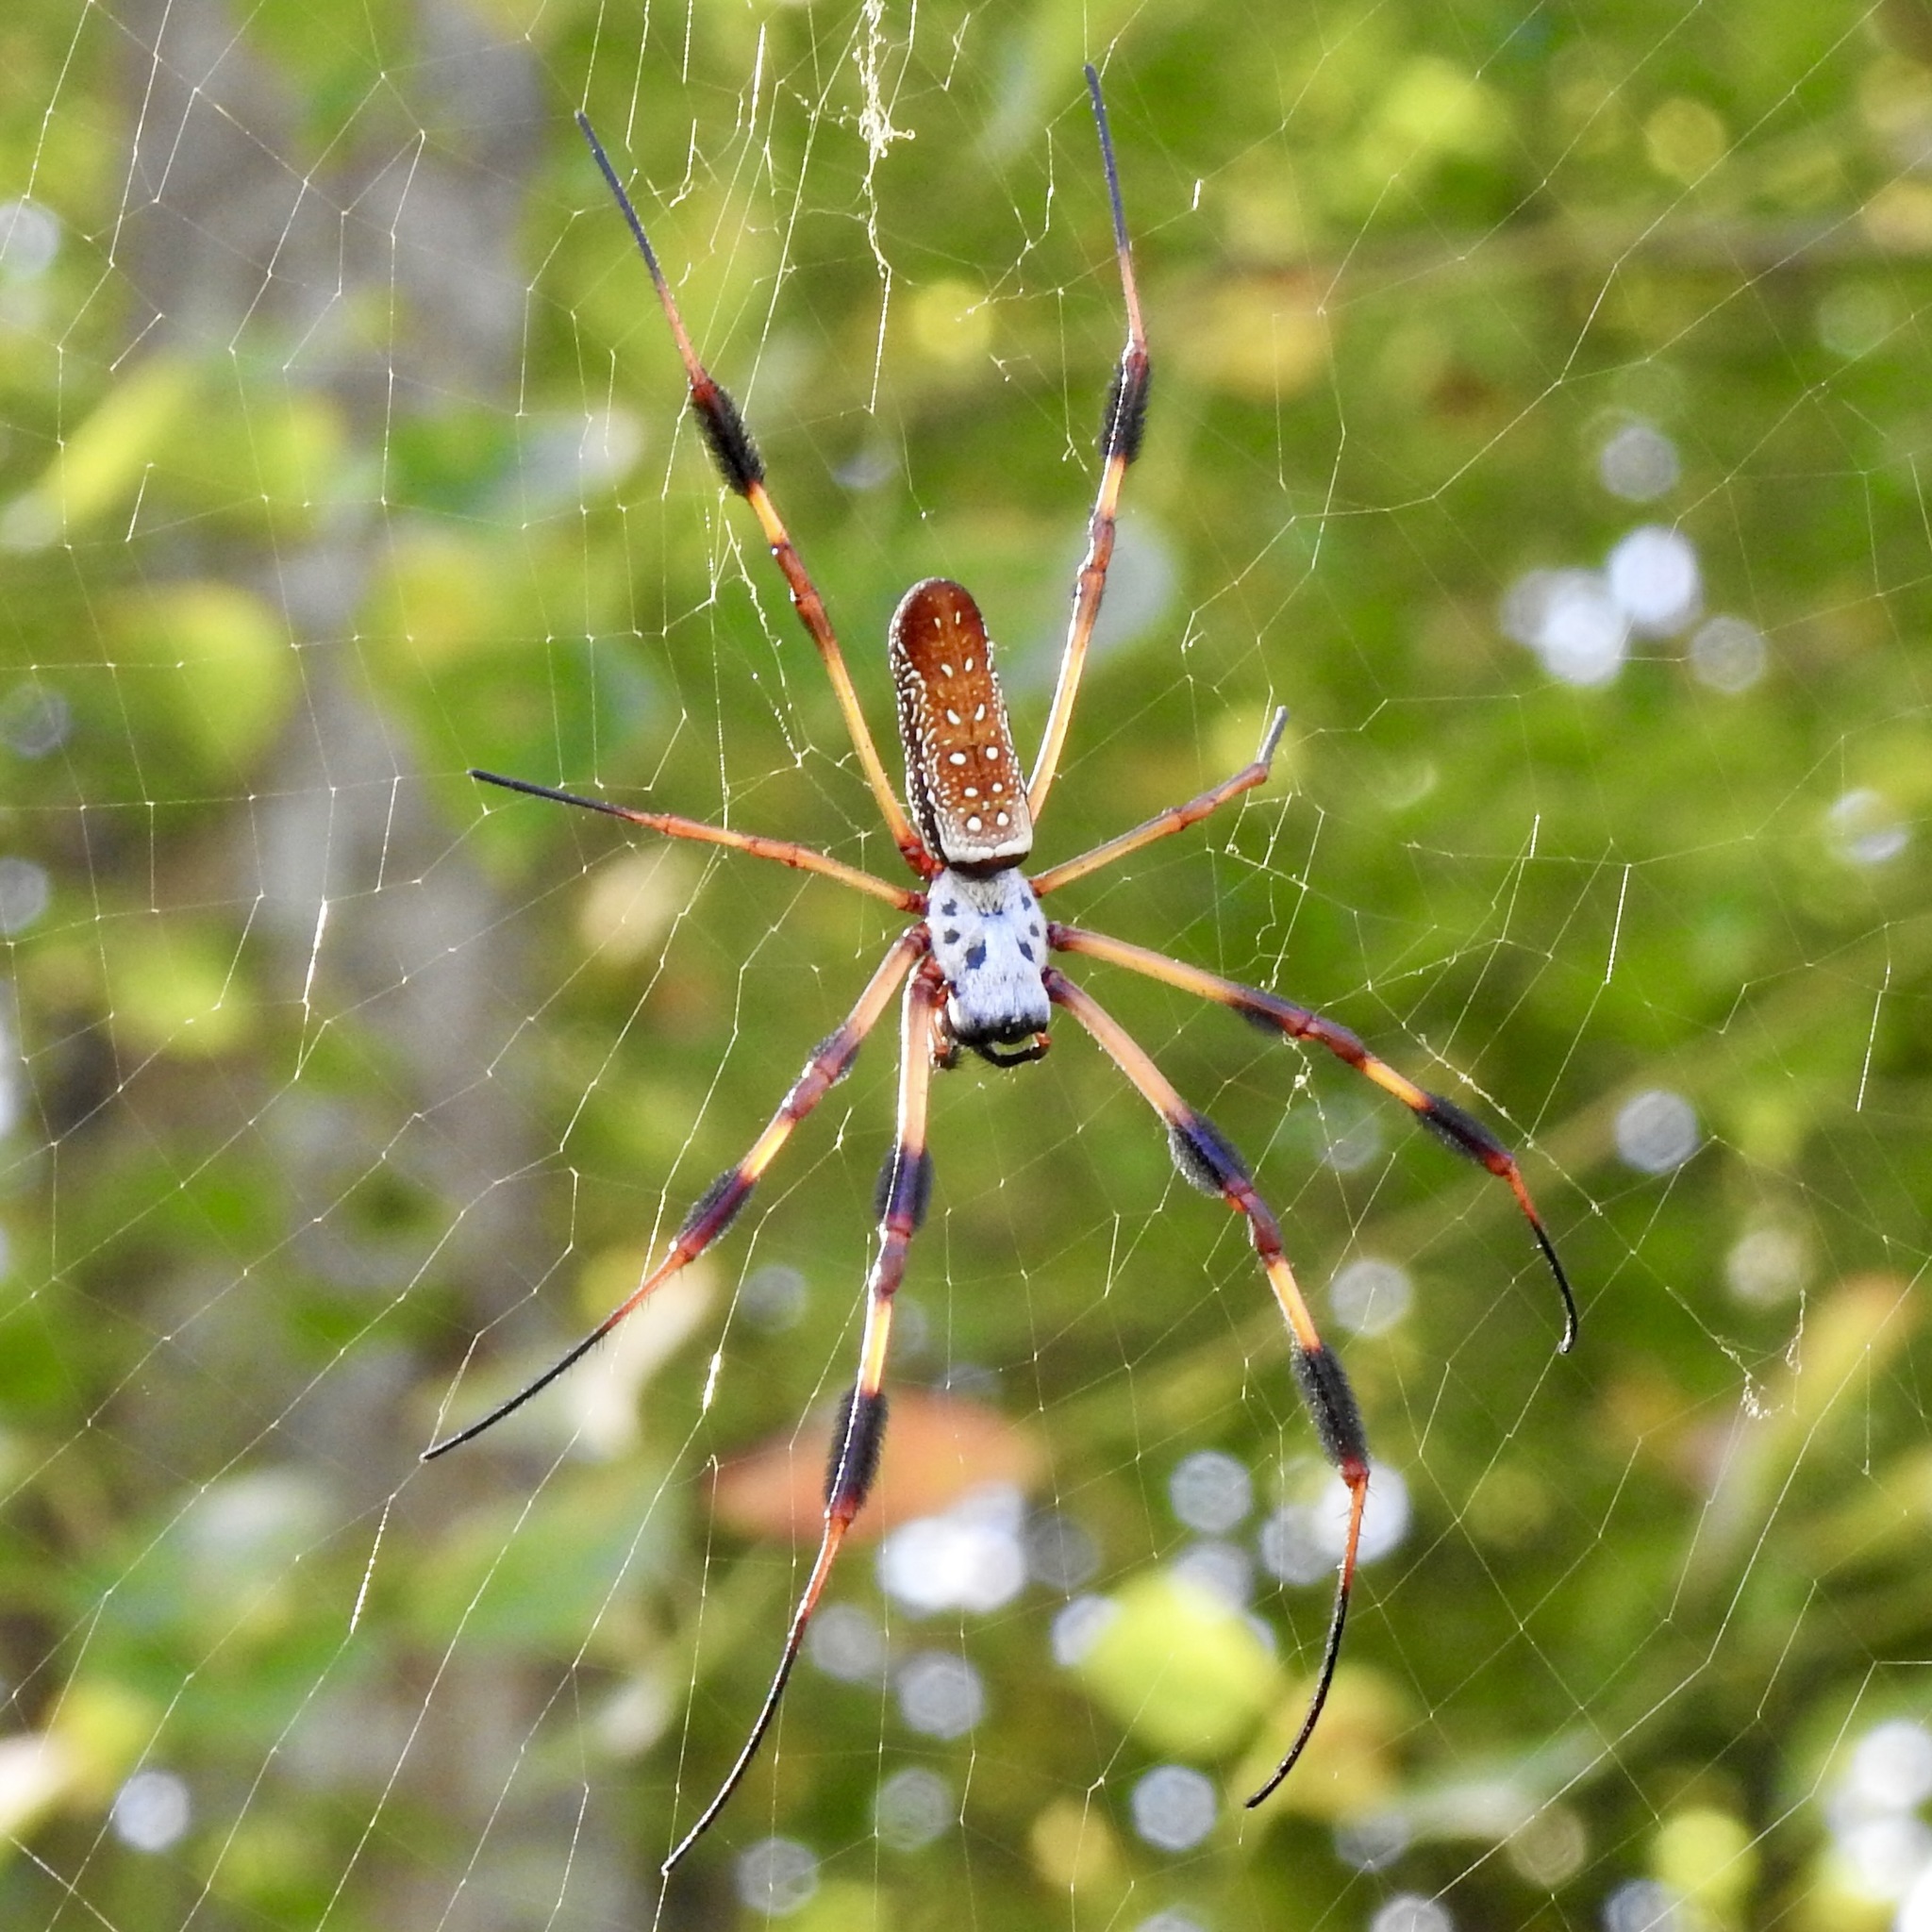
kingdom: Animalia
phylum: Arthropoda
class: Arachnida
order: Araneae
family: Araneidae
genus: Trichonephila
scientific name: Trichonephila clavipes
